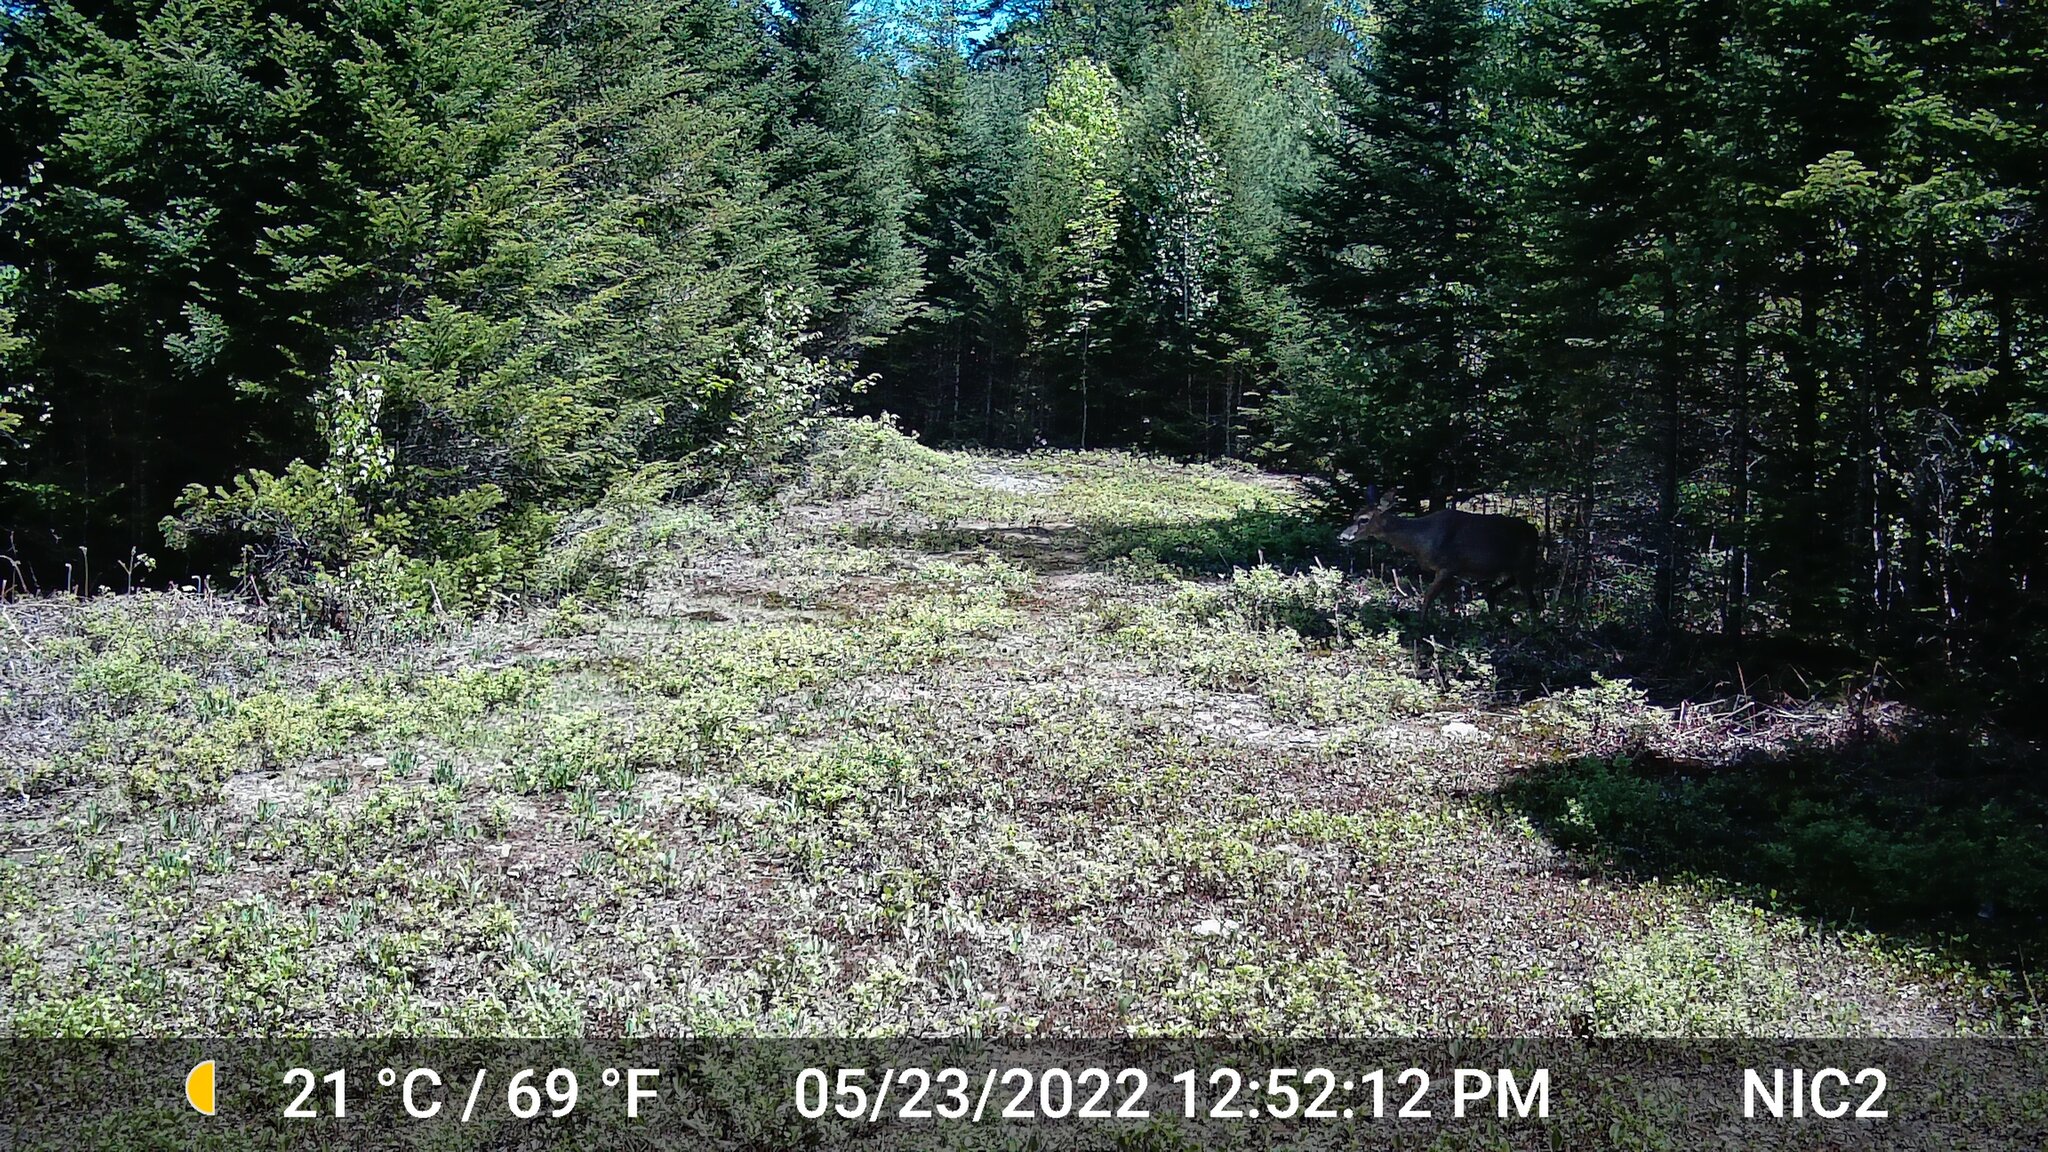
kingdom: Animalia
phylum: Chordata
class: Mammalia
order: Artiodactyla
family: Cervidae
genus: Odocoileus
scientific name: Odocoileus virginianus
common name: White-tailed deer
